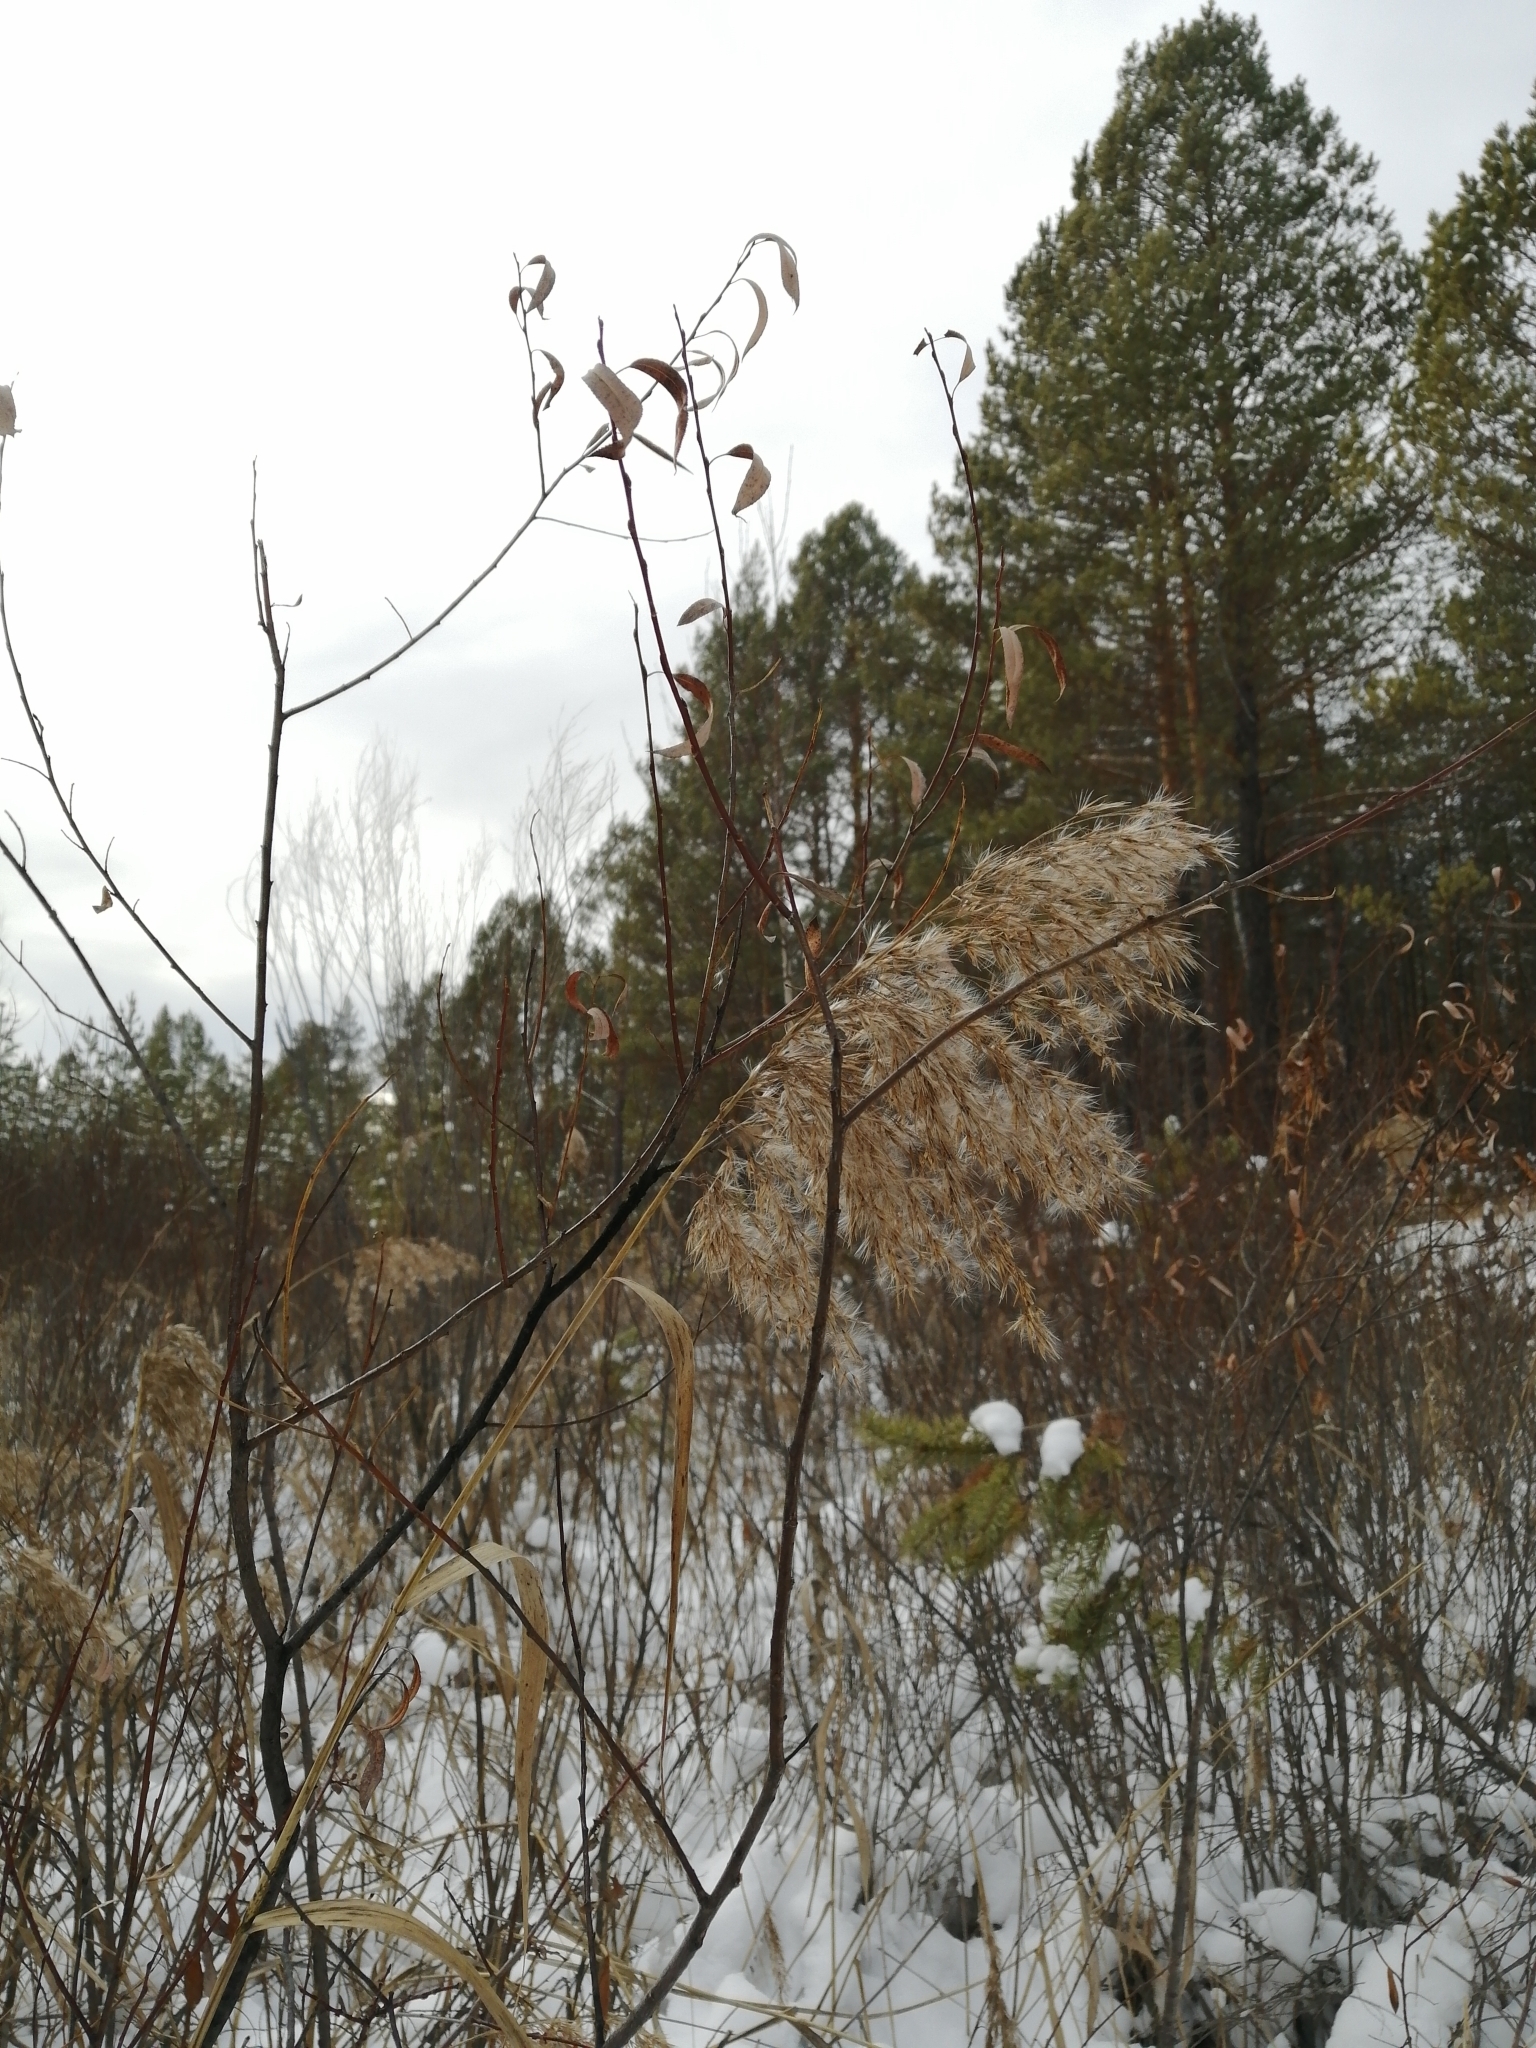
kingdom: Plantae
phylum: Tracheophyta
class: Liliopsida
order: Poales
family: Poaceae
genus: Phragmites
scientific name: Phragmites australis
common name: Common reed
